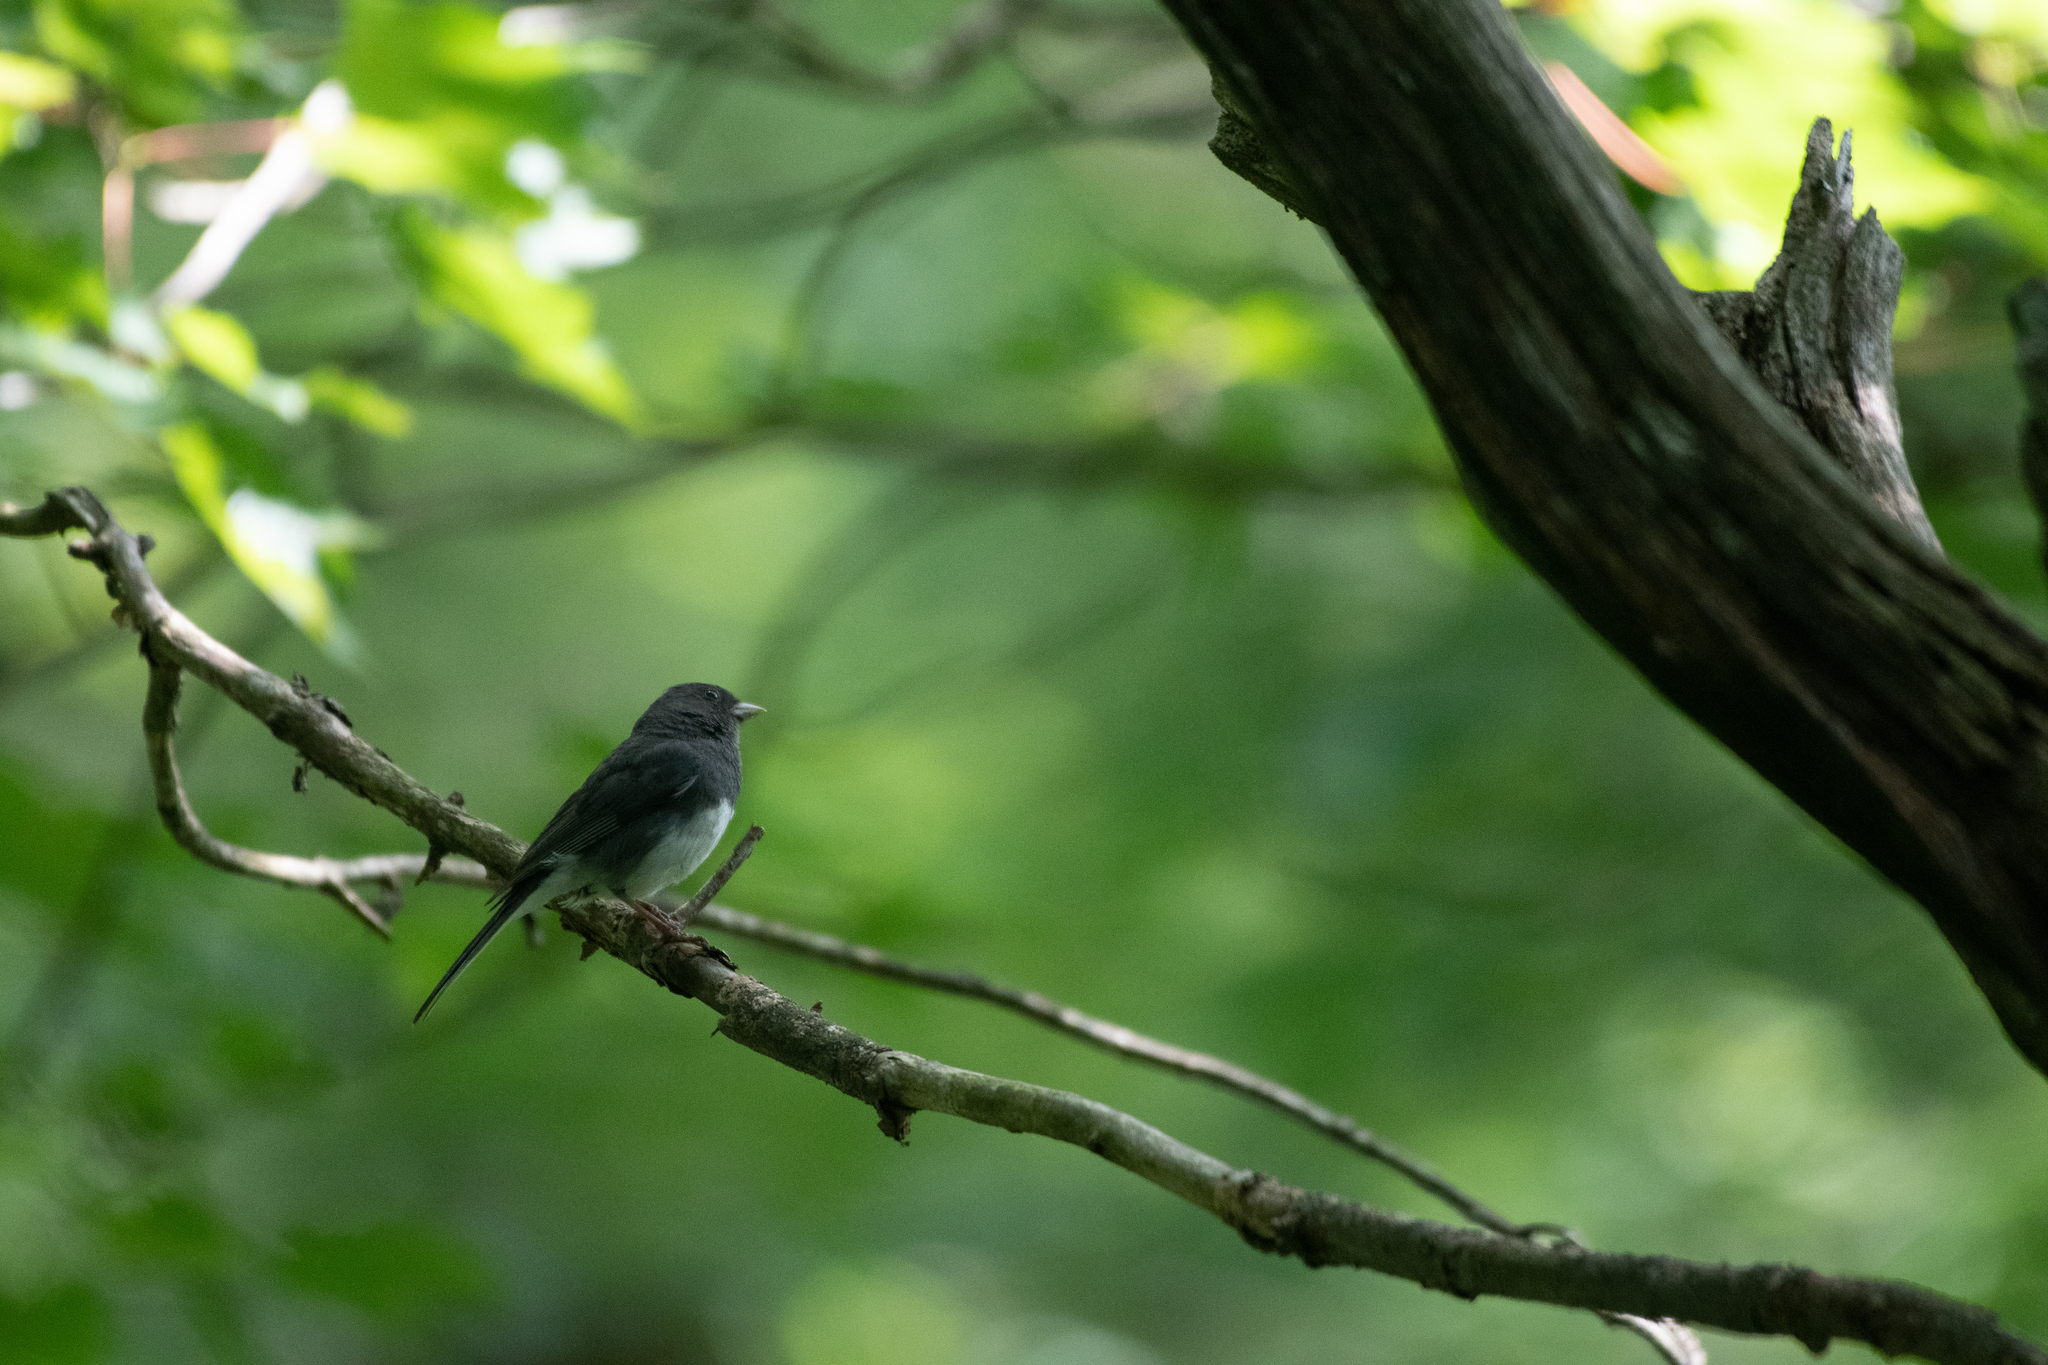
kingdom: Animalia
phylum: Chordata
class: Aves
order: Passeriformes
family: Passerellidae
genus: Junco
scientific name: Junco hyemalis
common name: Dark-eyed junco
